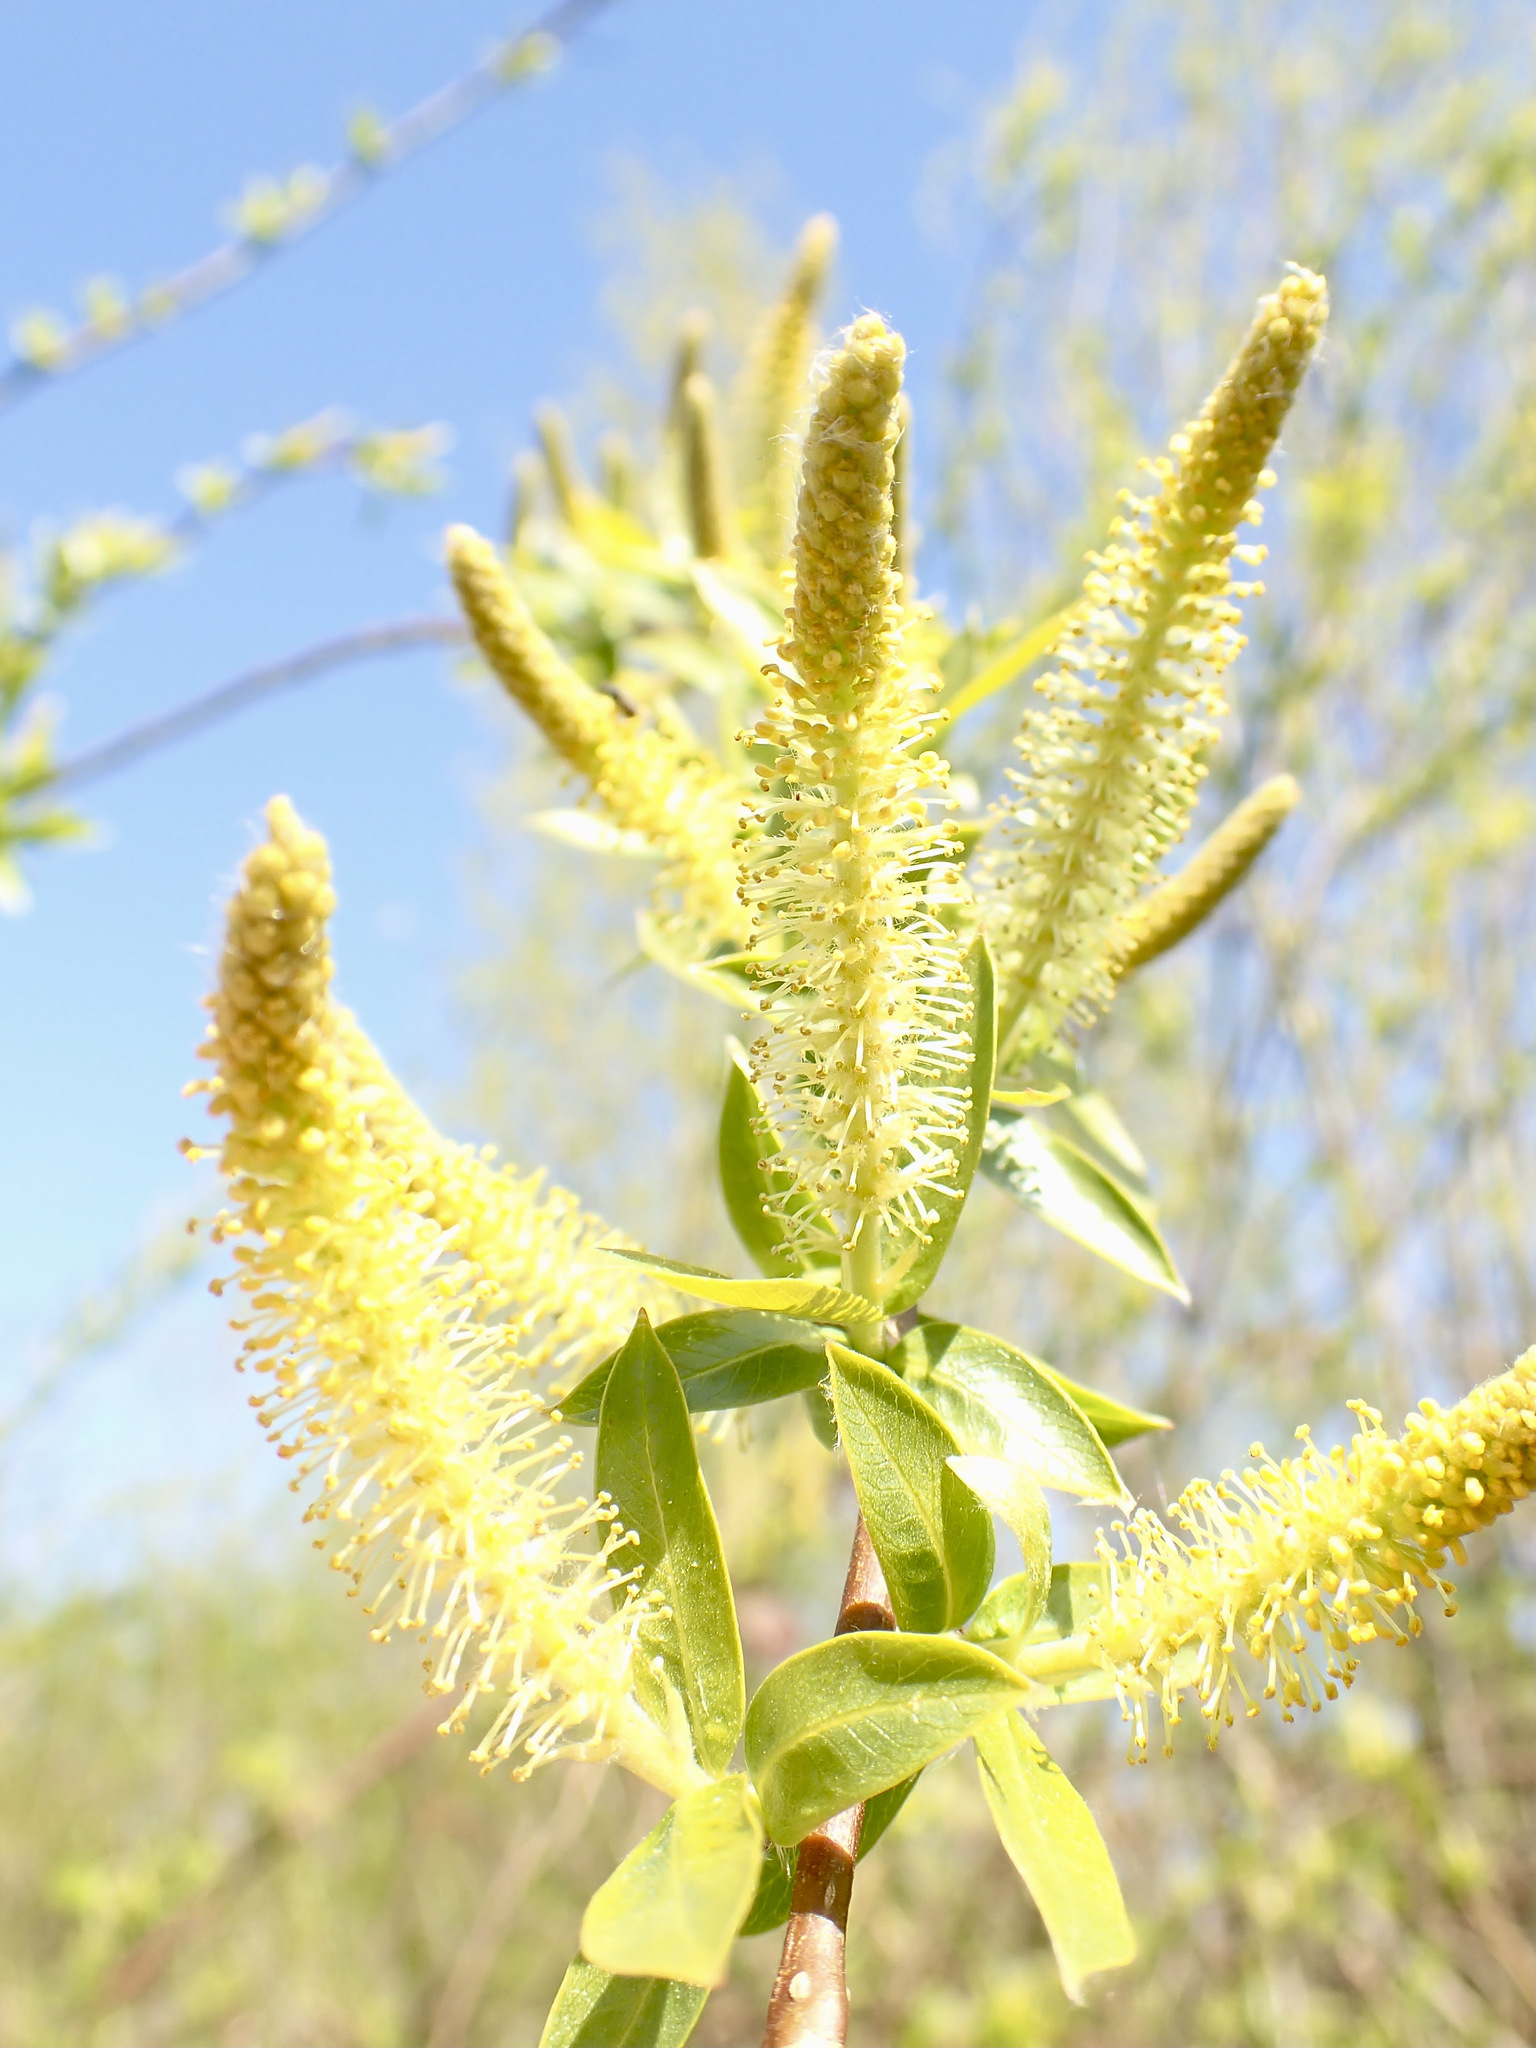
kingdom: Plantae
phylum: Tracheophyta
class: Magnoliopsida
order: Malpighiales
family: Salicaceae
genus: Salix
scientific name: Salix alba
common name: White willow
